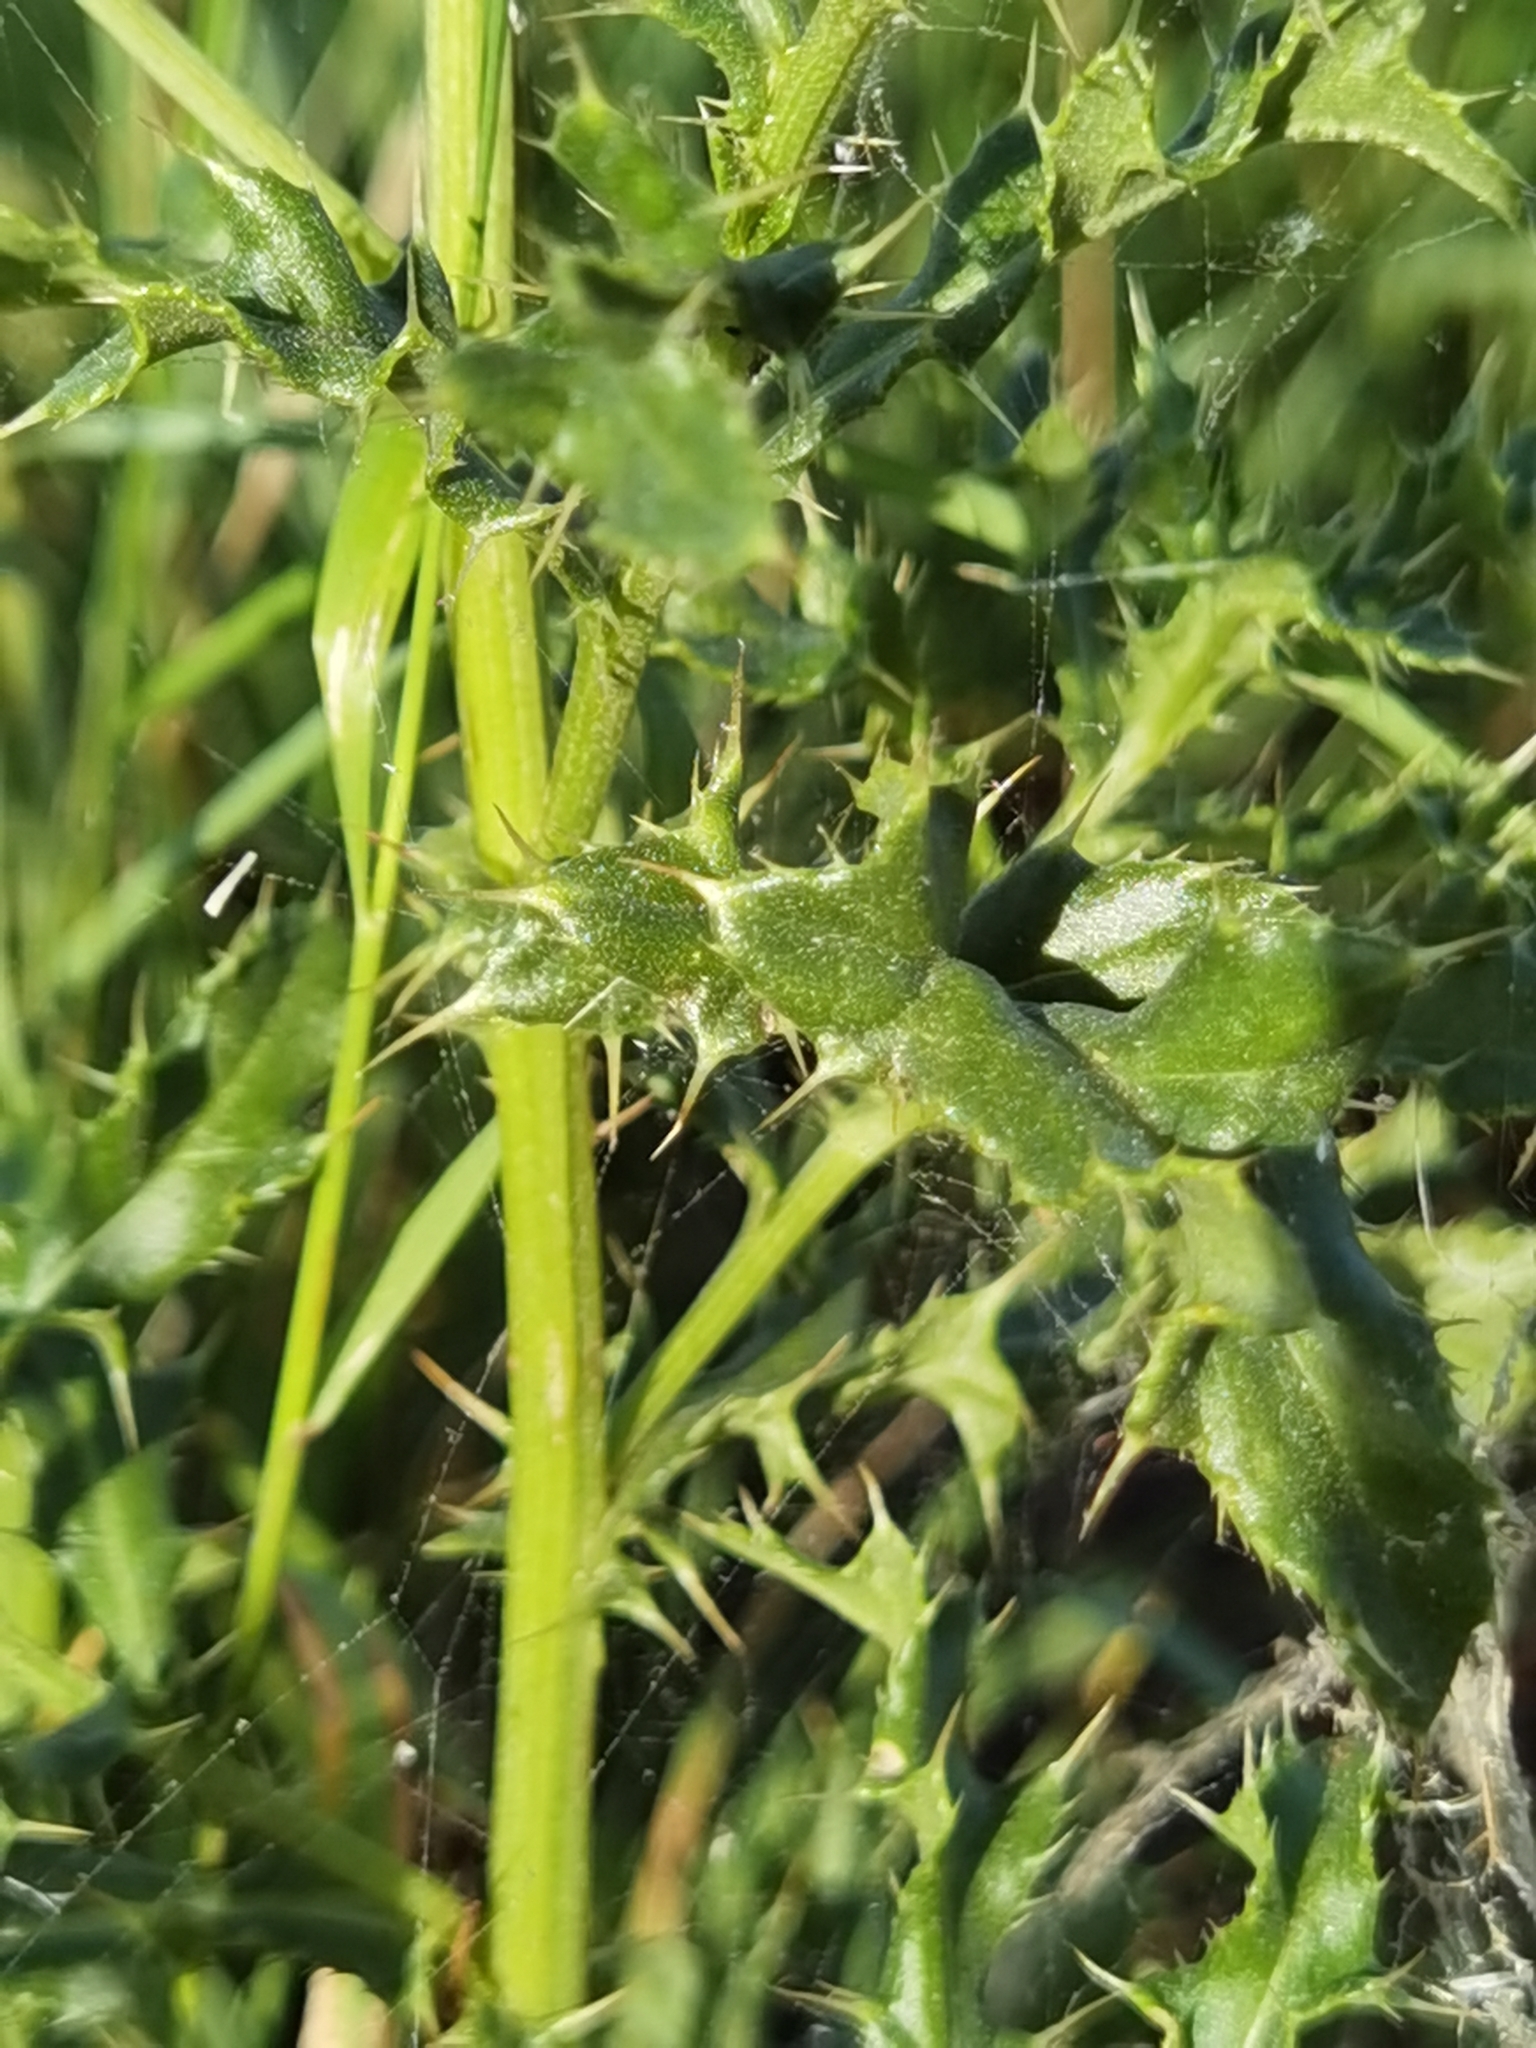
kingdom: Plantae
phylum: Tracheophyta
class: Magnoliopsida
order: Asterales
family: Asteraceae
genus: Cirsium
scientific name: Cirsium arvense
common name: Creeping thistle
